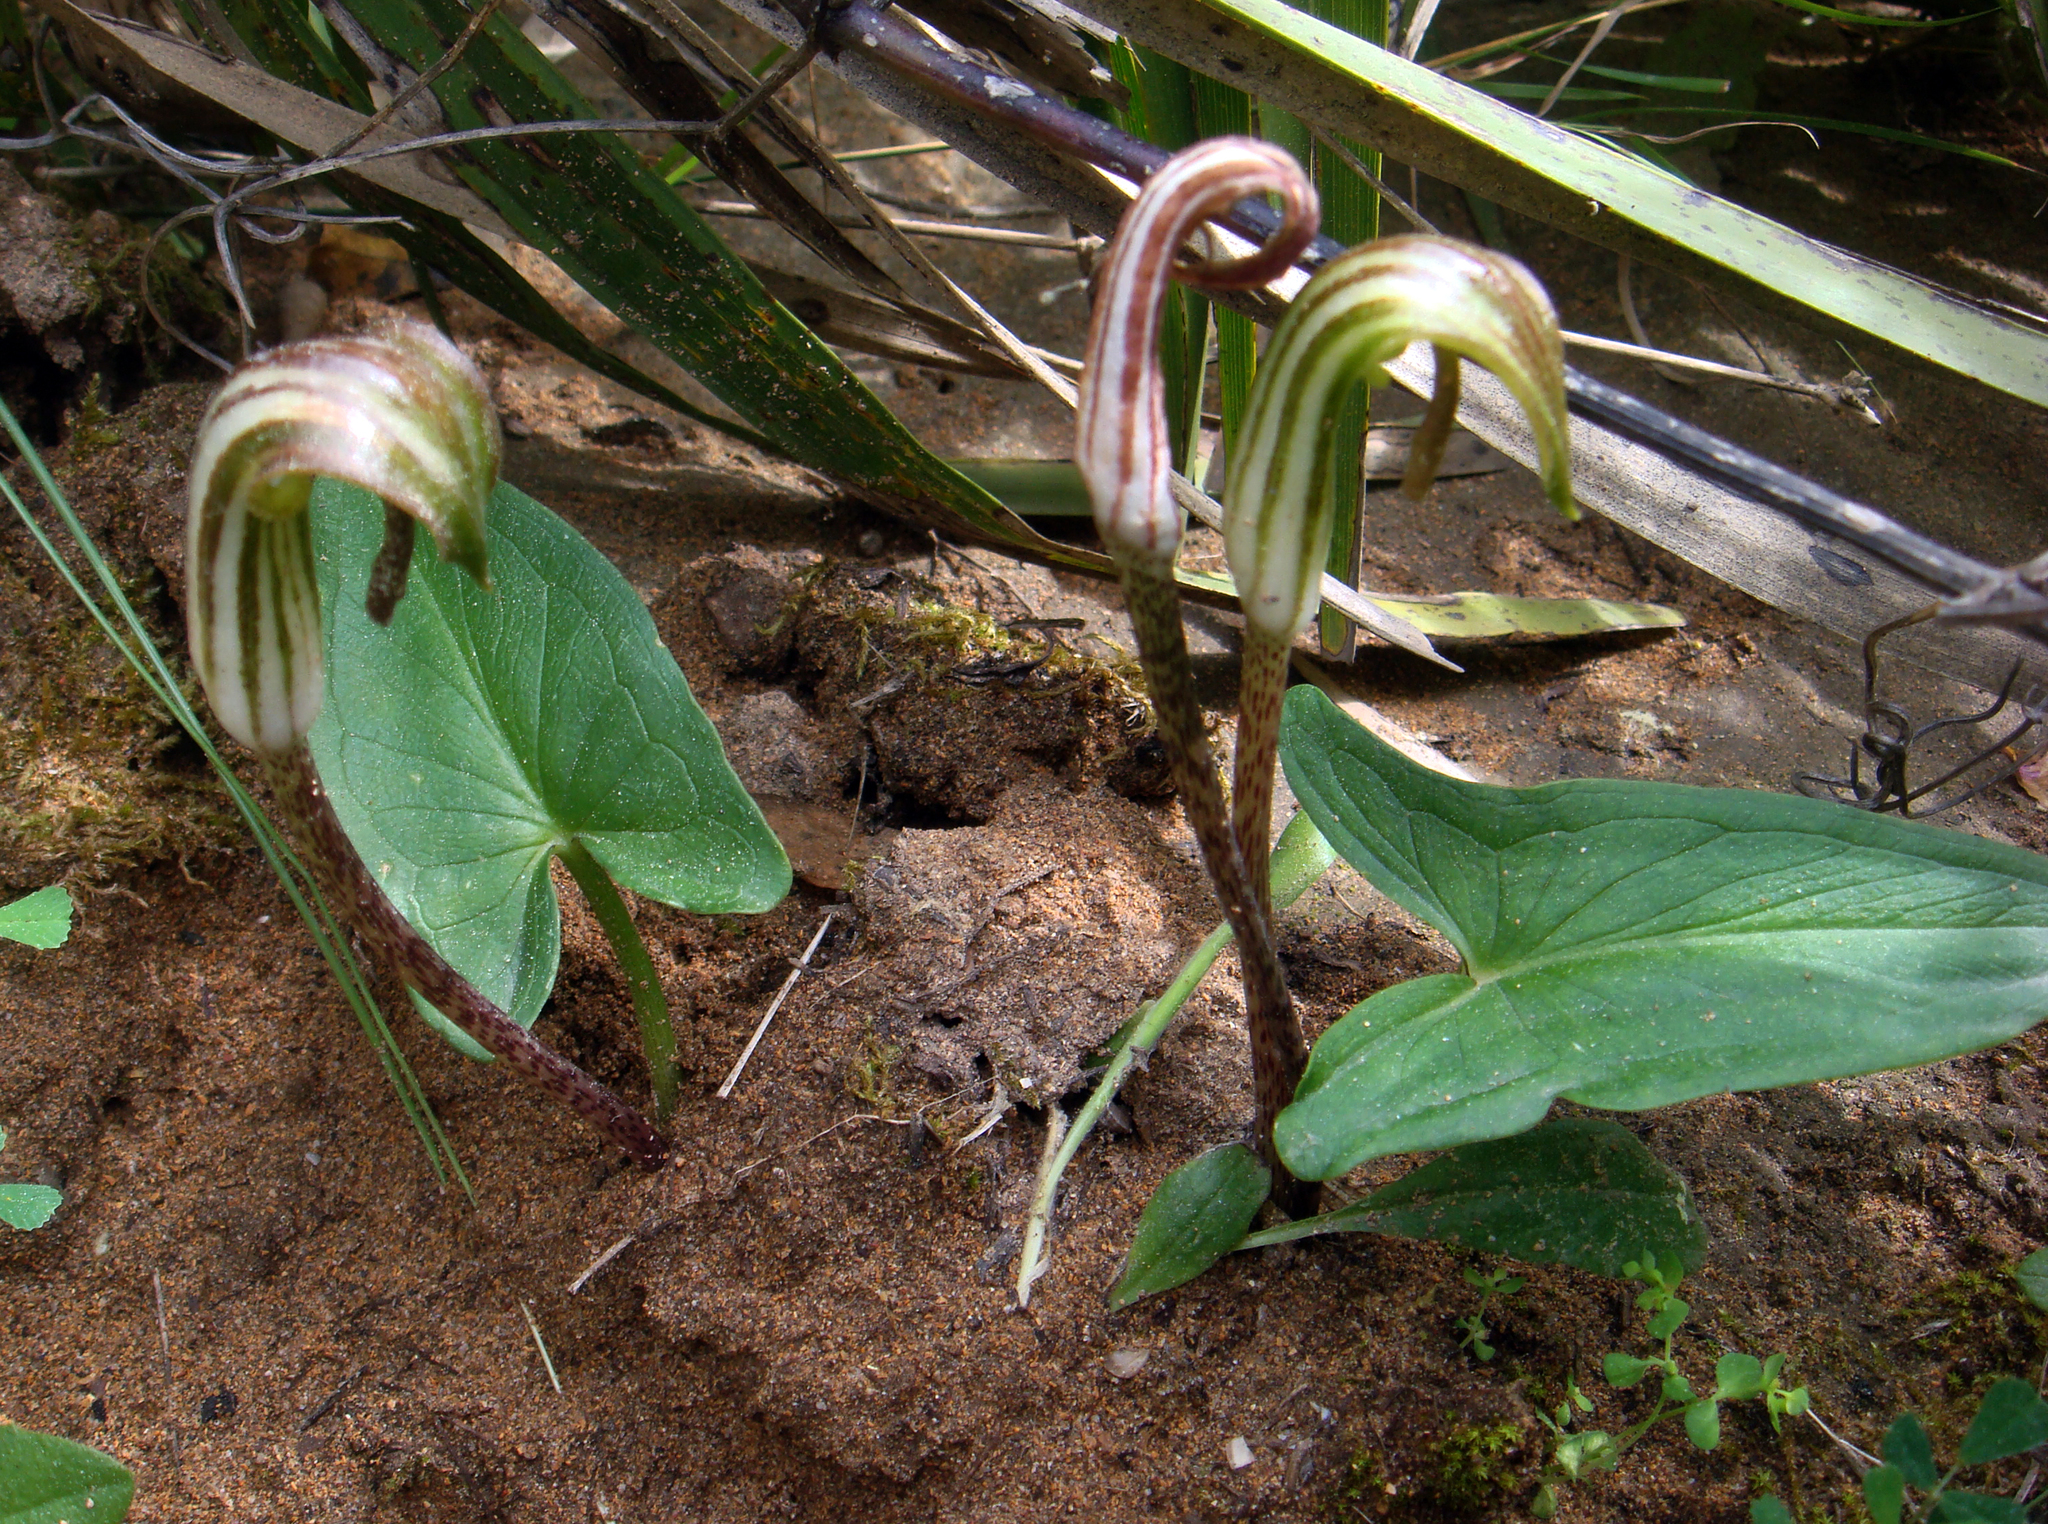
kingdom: Plantae
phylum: Tracheophyta
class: Liliopsida
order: Alismatales
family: Araceae
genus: Arisarum
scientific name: Arisarum vulgare
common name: Common arisarum
